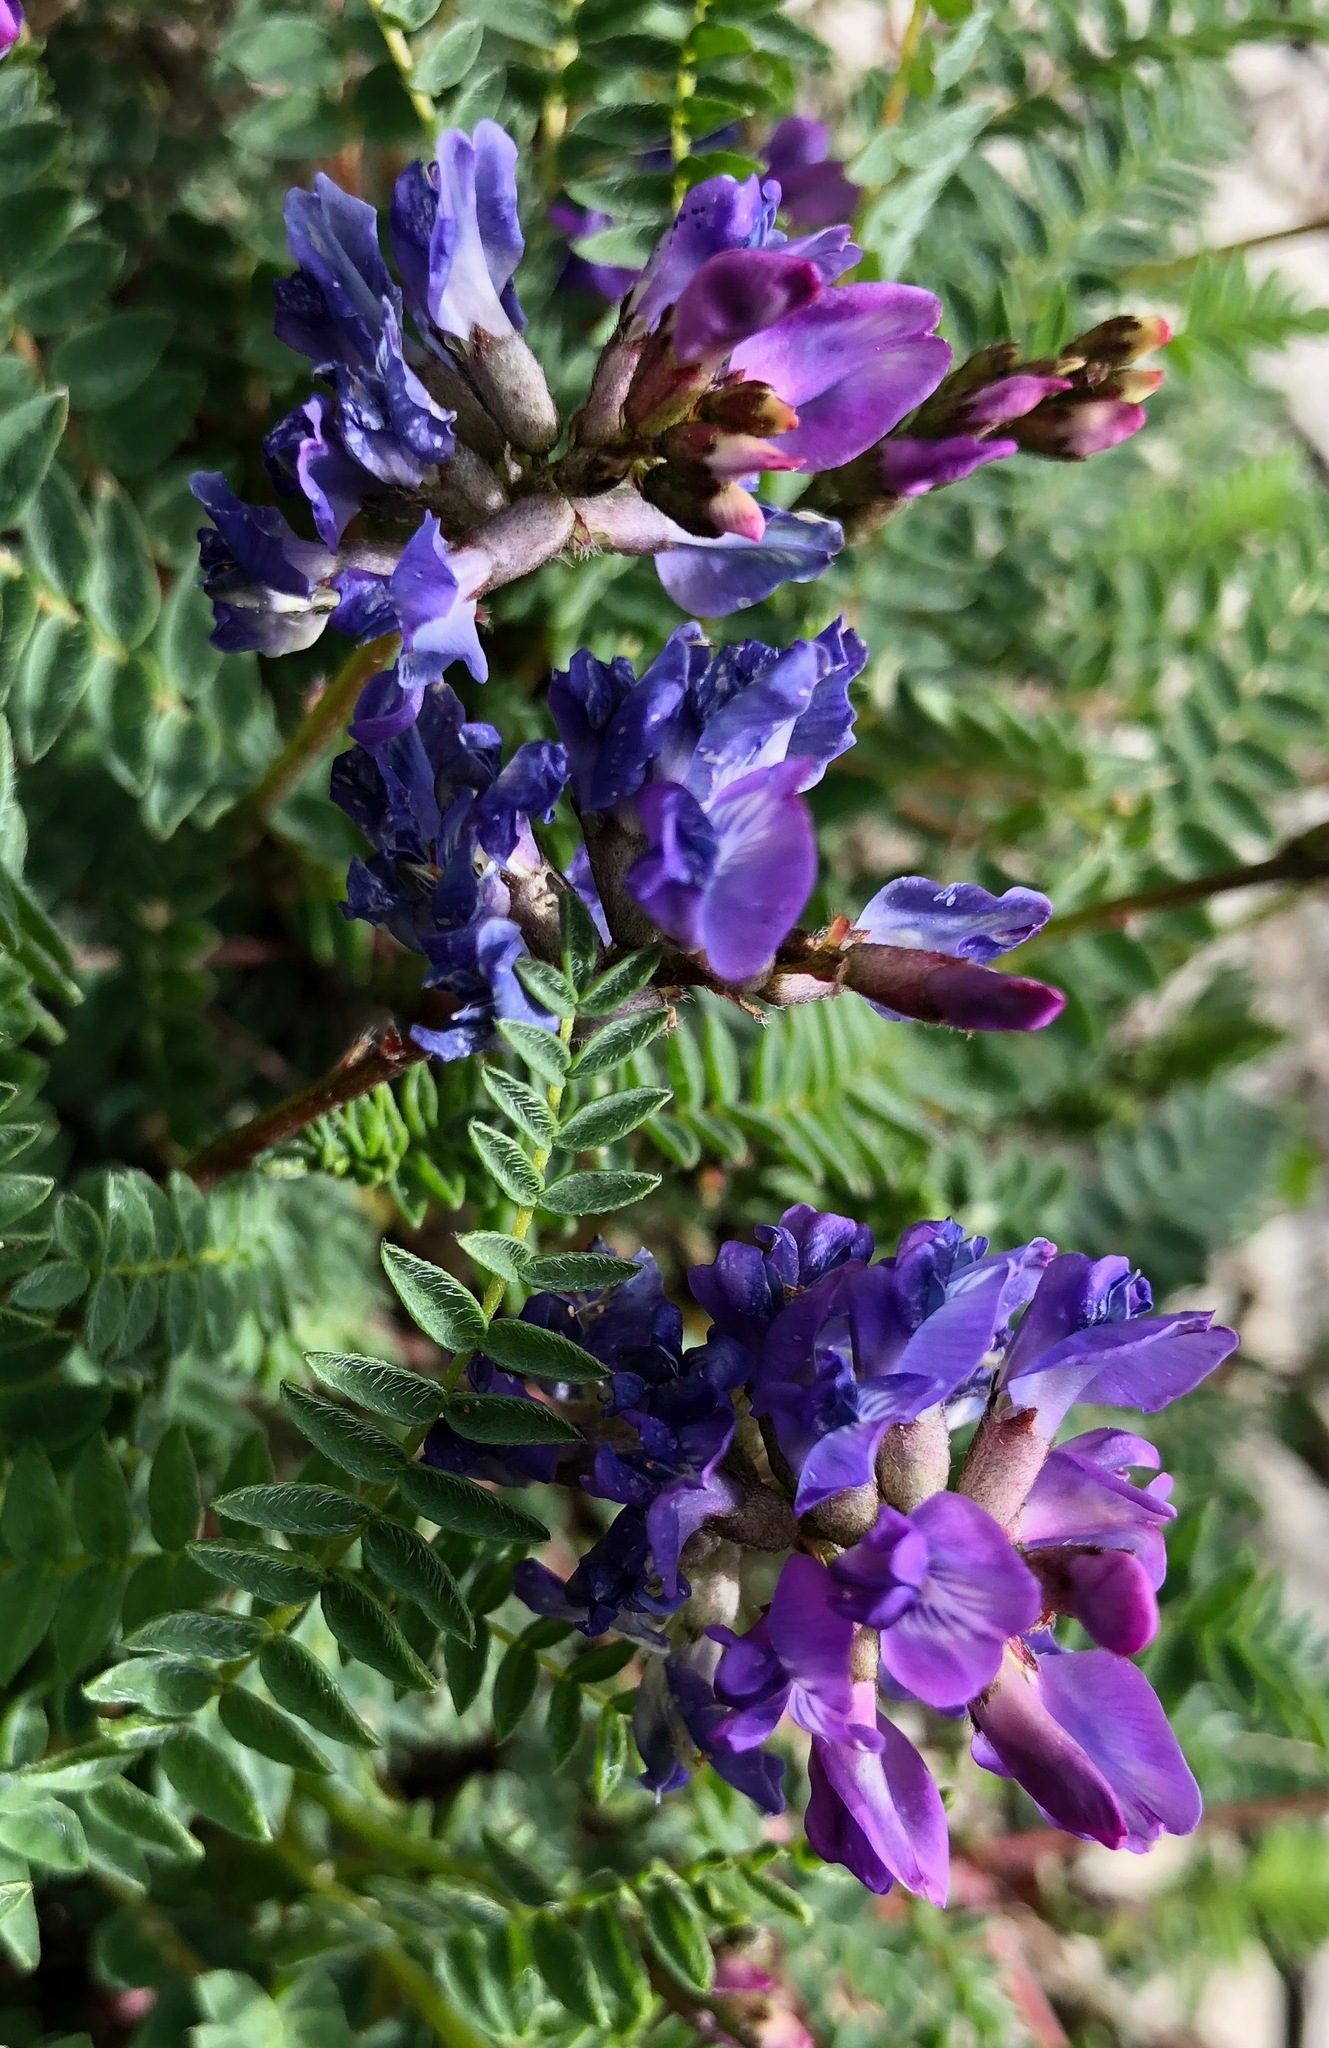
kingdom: Plantae
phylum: Tracheophyta
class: Magnoliopsida
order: Fabales
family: Fabaceae
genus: Oxytropis
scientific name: Oxytropis montana
